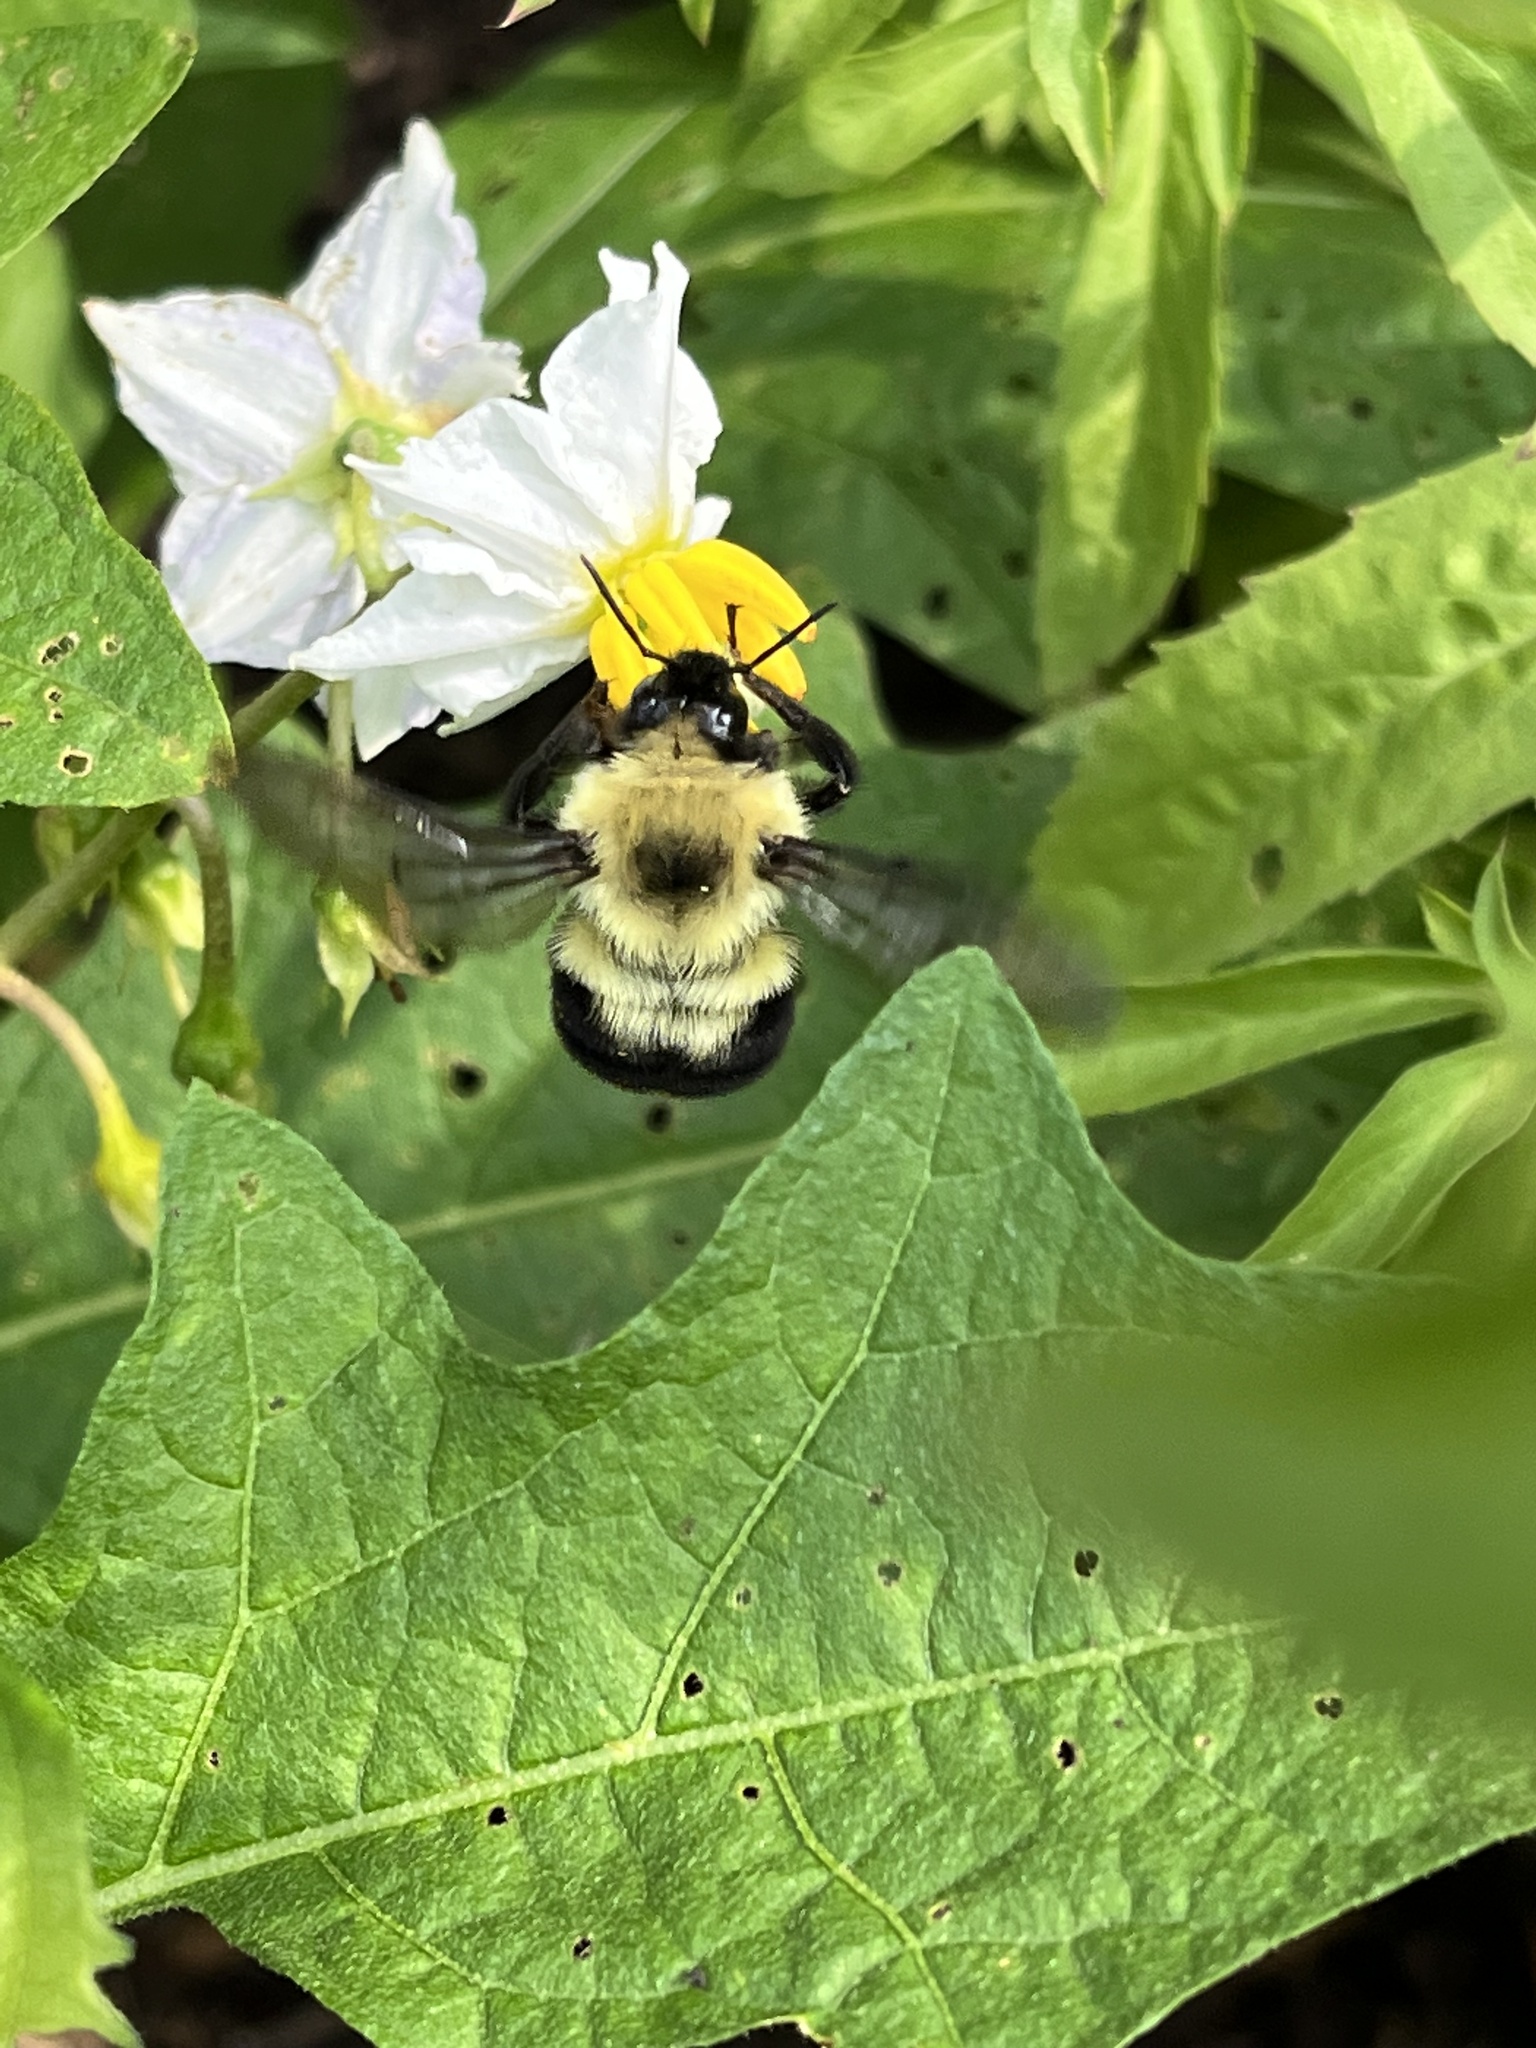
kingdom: Animalia
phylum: Arthropoda
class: Insecta
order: Hymenoptera
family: Apidae
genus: Bombus
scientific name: Bombus bimaculatus
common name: Two-spotted bumble bee
